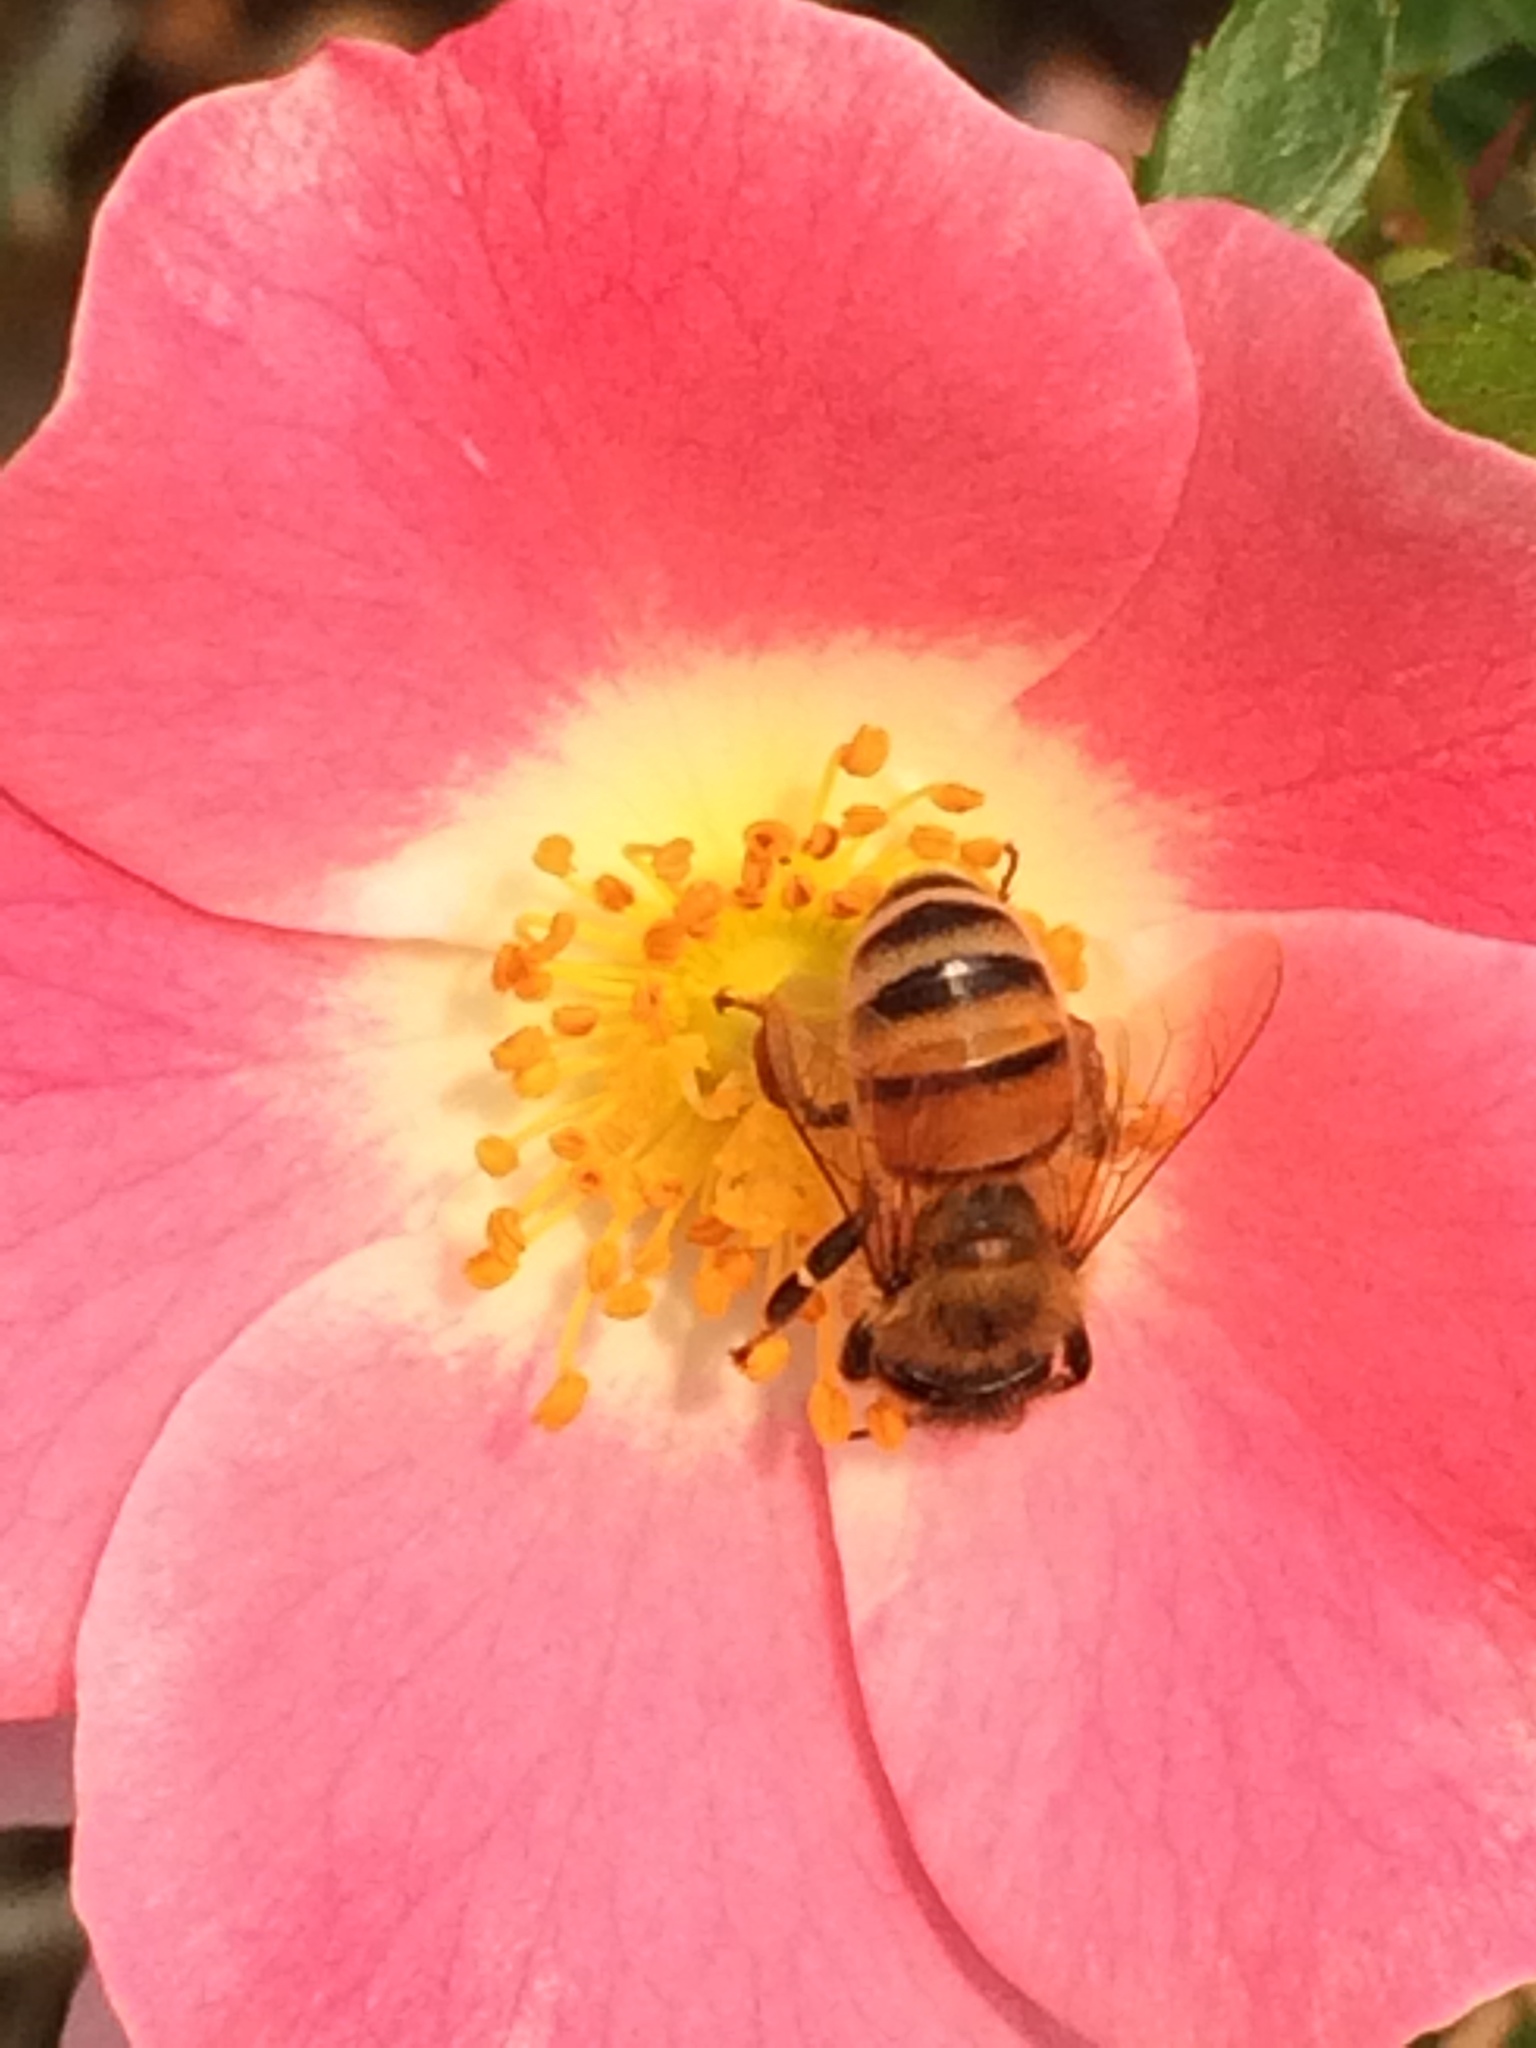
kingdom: Animalia
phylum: Arthropoda
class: Insecta
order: Hymenoptera
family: Apidae
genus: Apis
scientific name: Apis mellifera
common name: Honey bee
